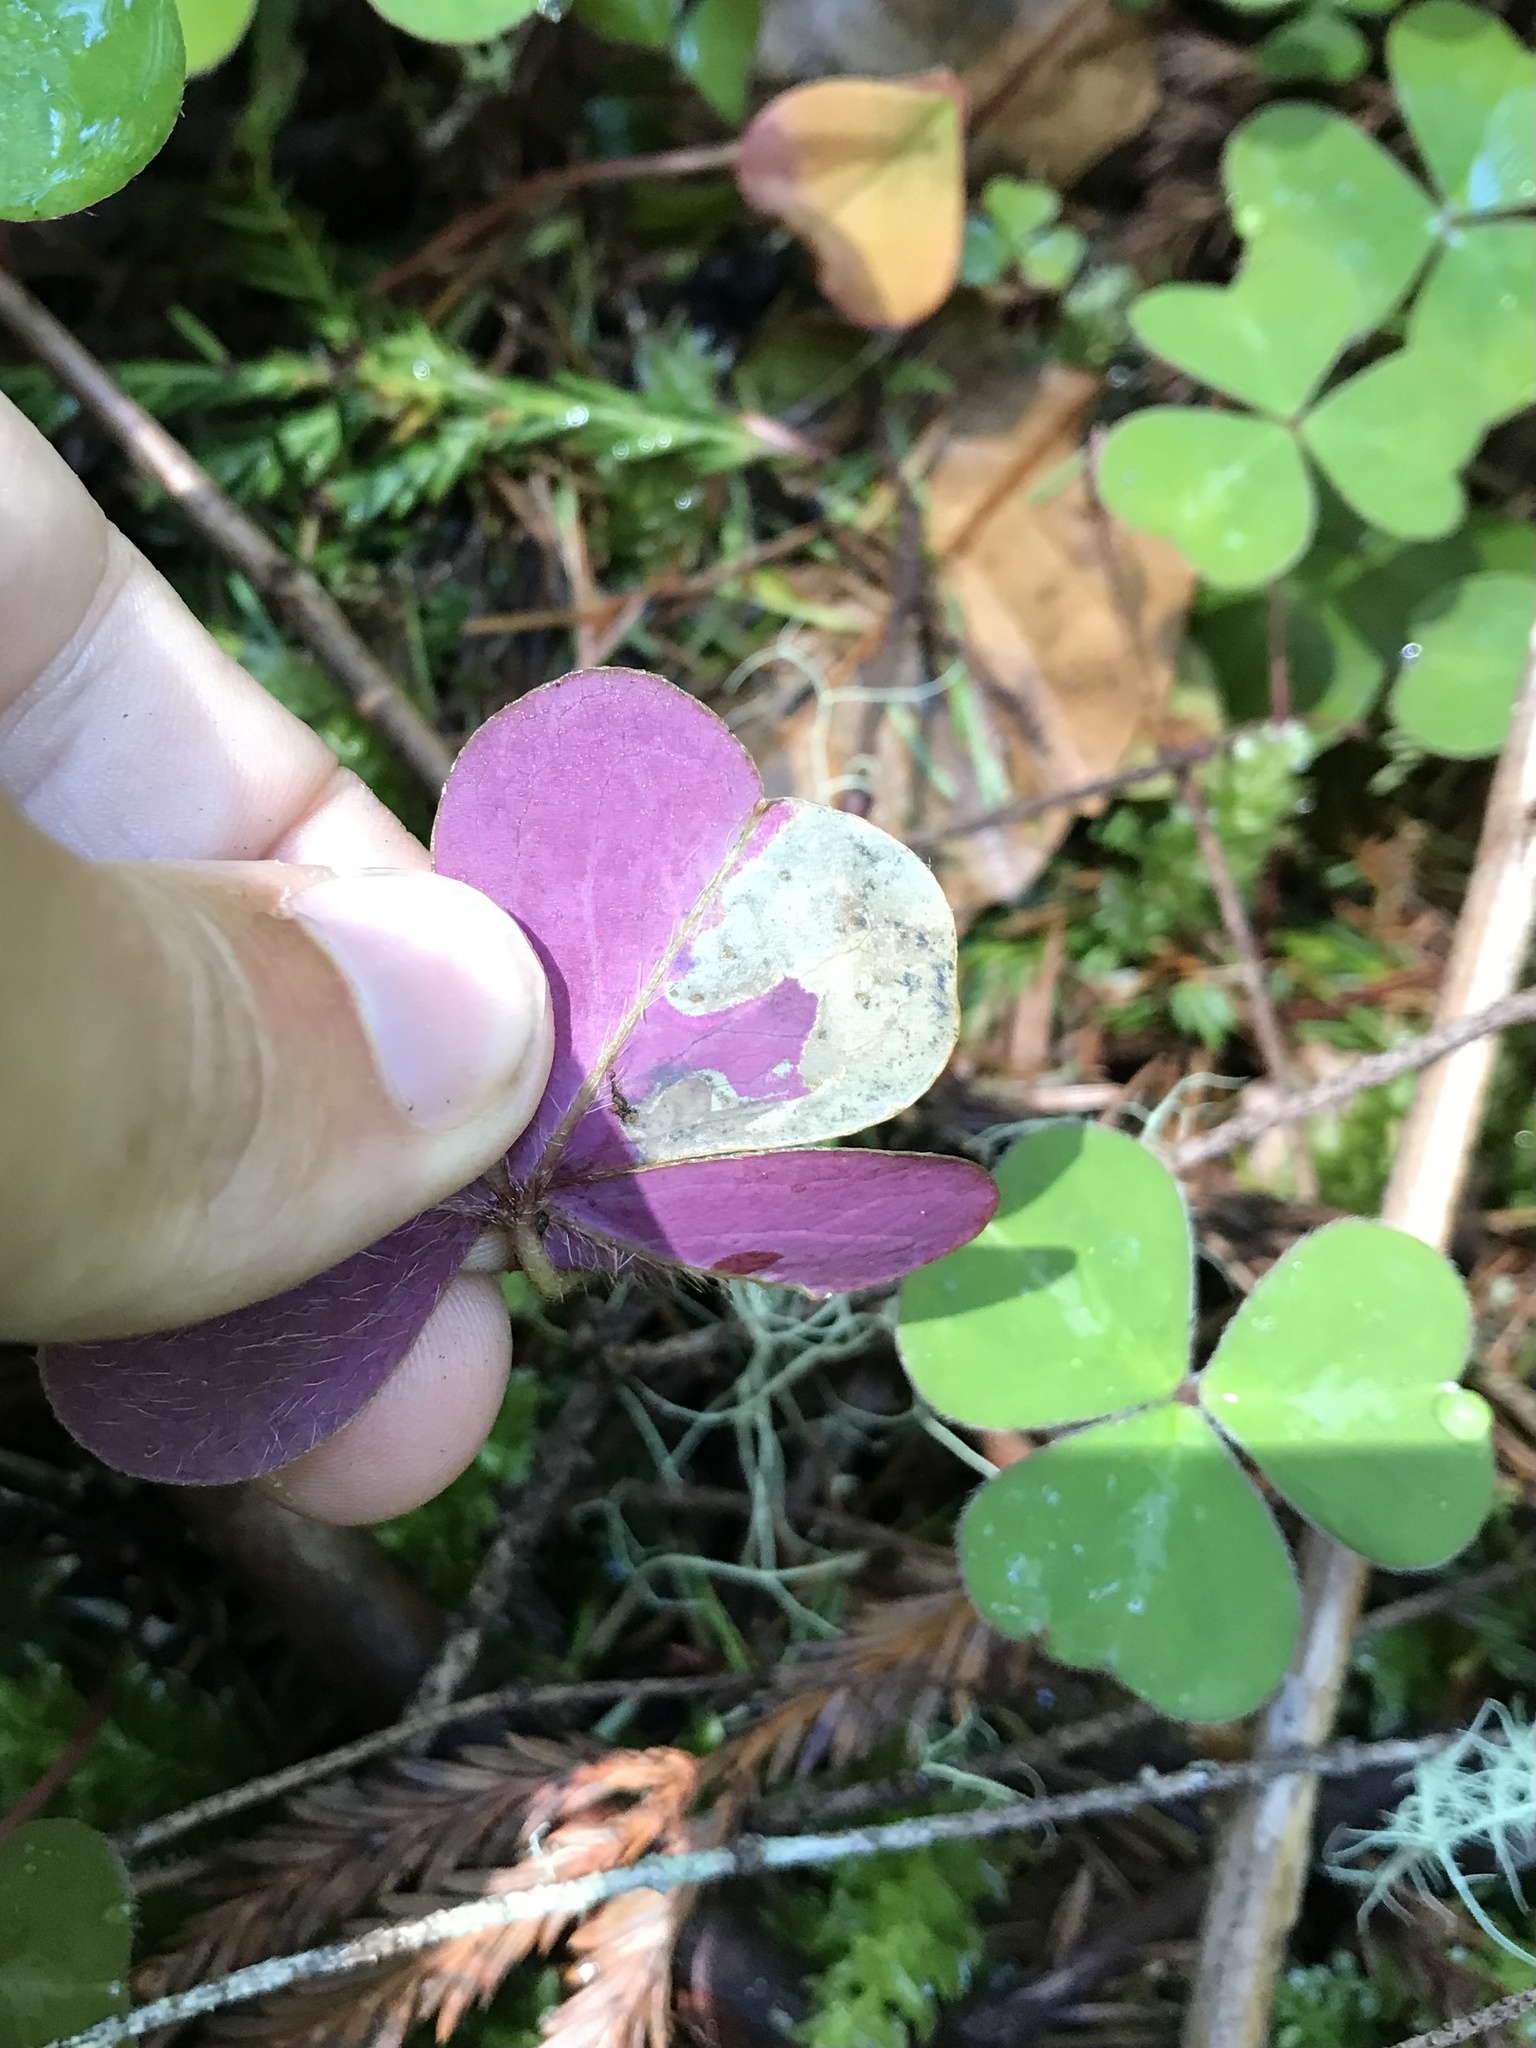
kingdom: Animalia
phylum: Arthropoda
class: Insecta
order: Diptera
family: Anthomyiidae
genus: Pegomya
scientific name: Pegomya pseudobicolor
